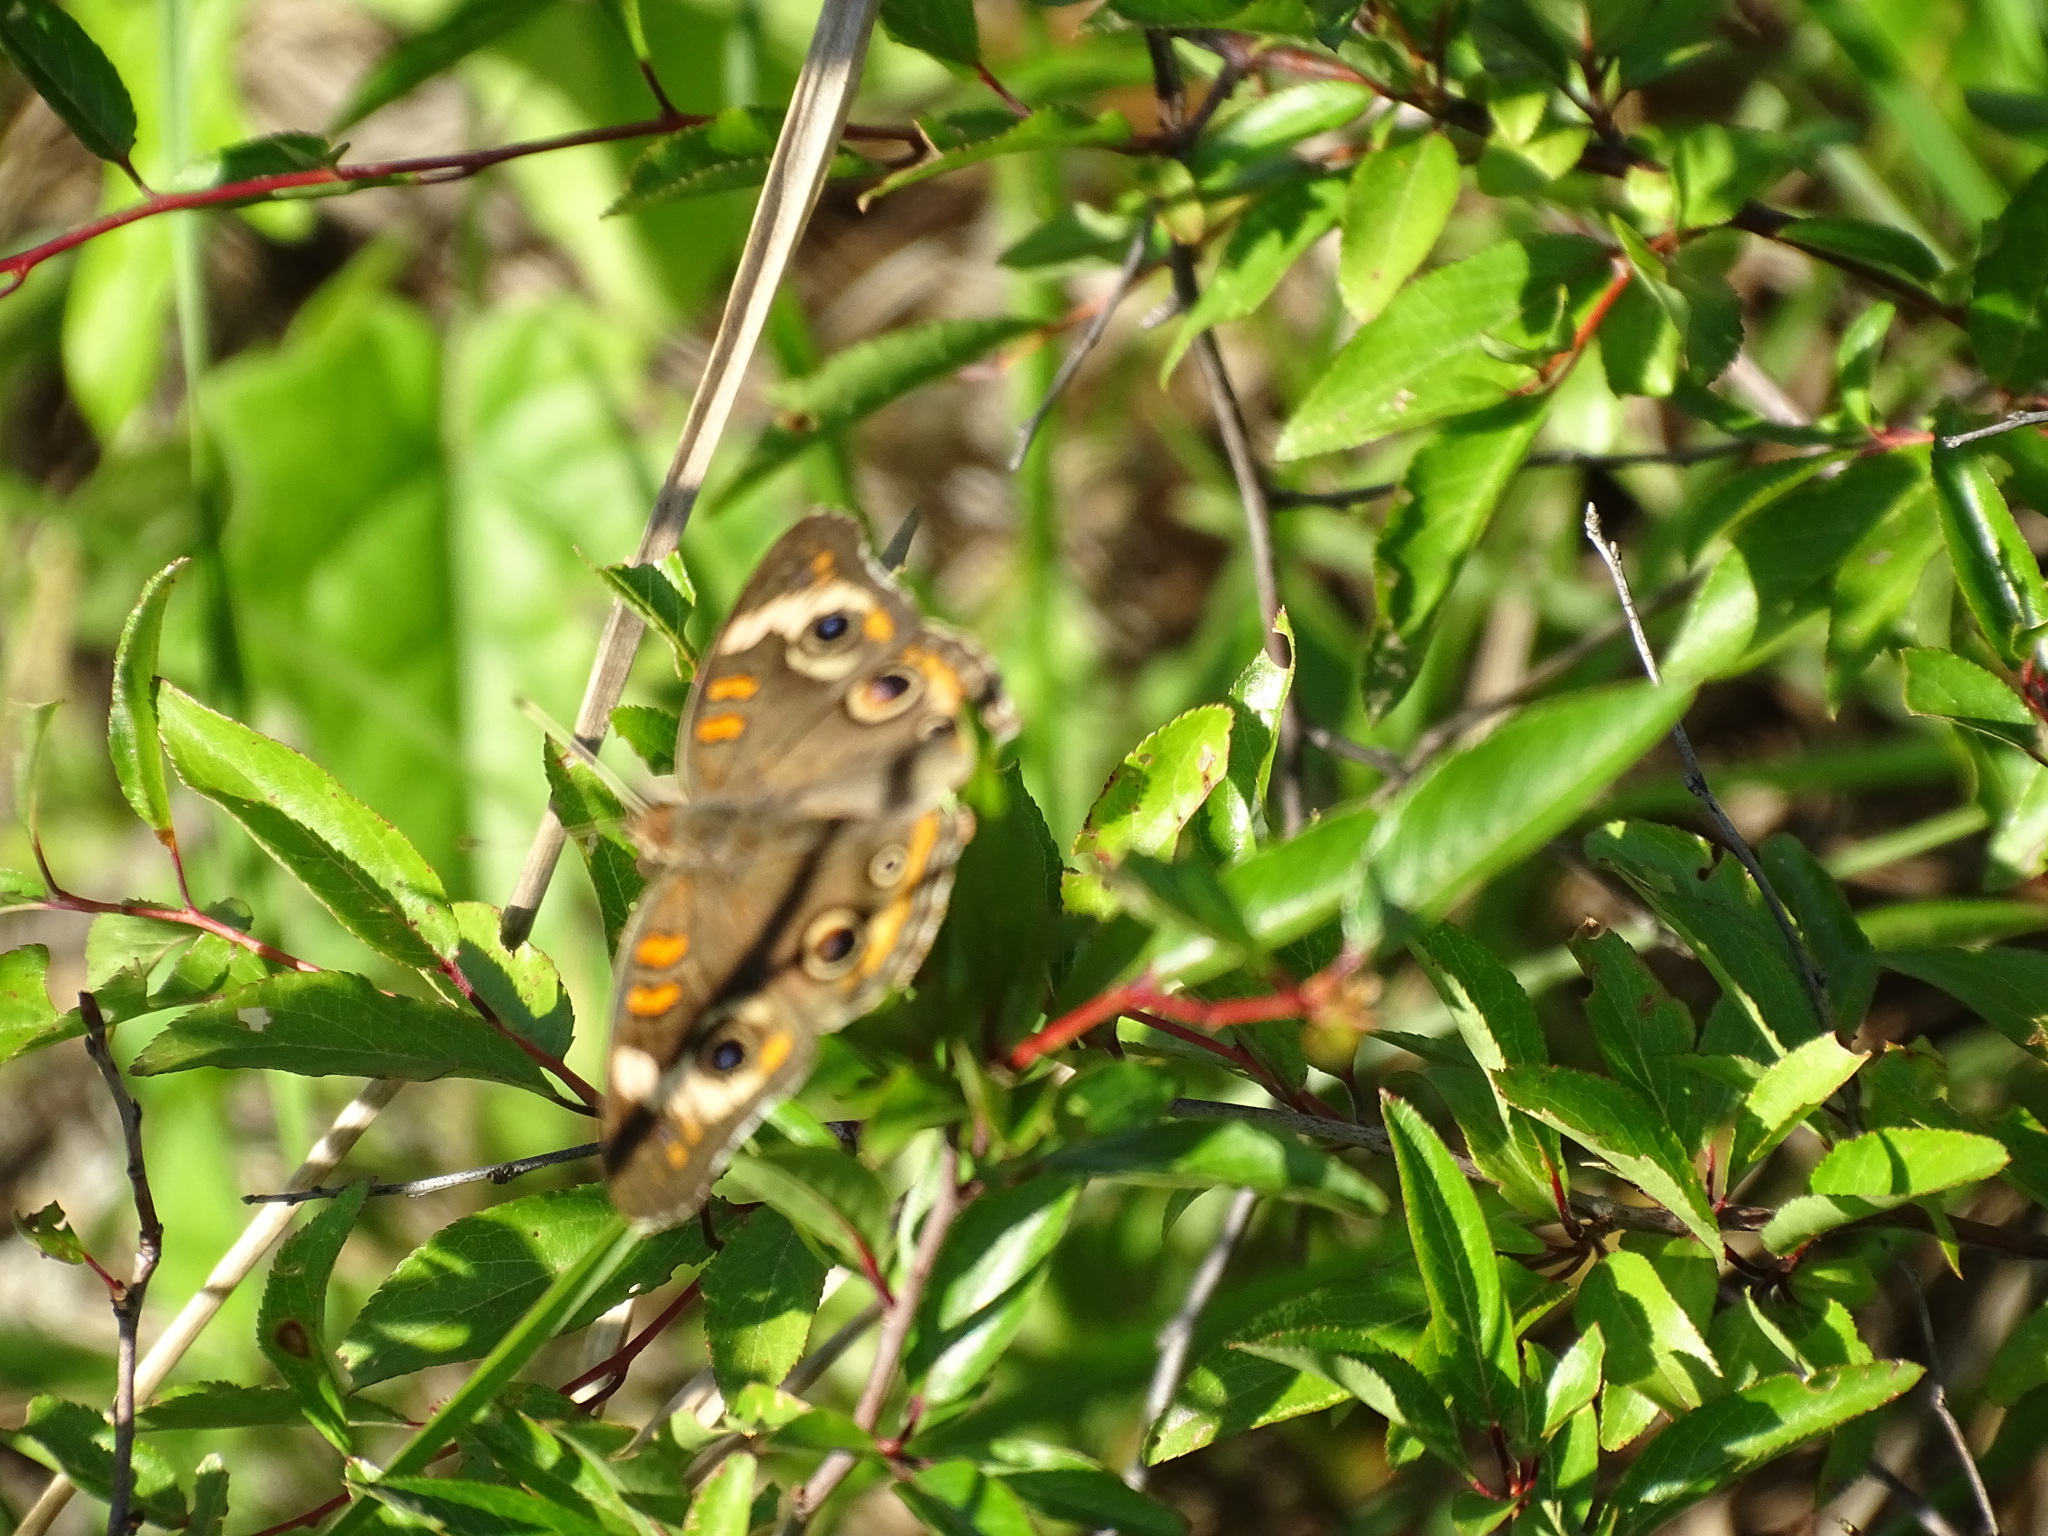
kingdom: Animalia
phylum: Arthropoda
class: Insecta
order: Lepidoptera
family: Nymphalidae
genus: Junonia
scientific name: Junonia coenia
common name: Common buckeye
